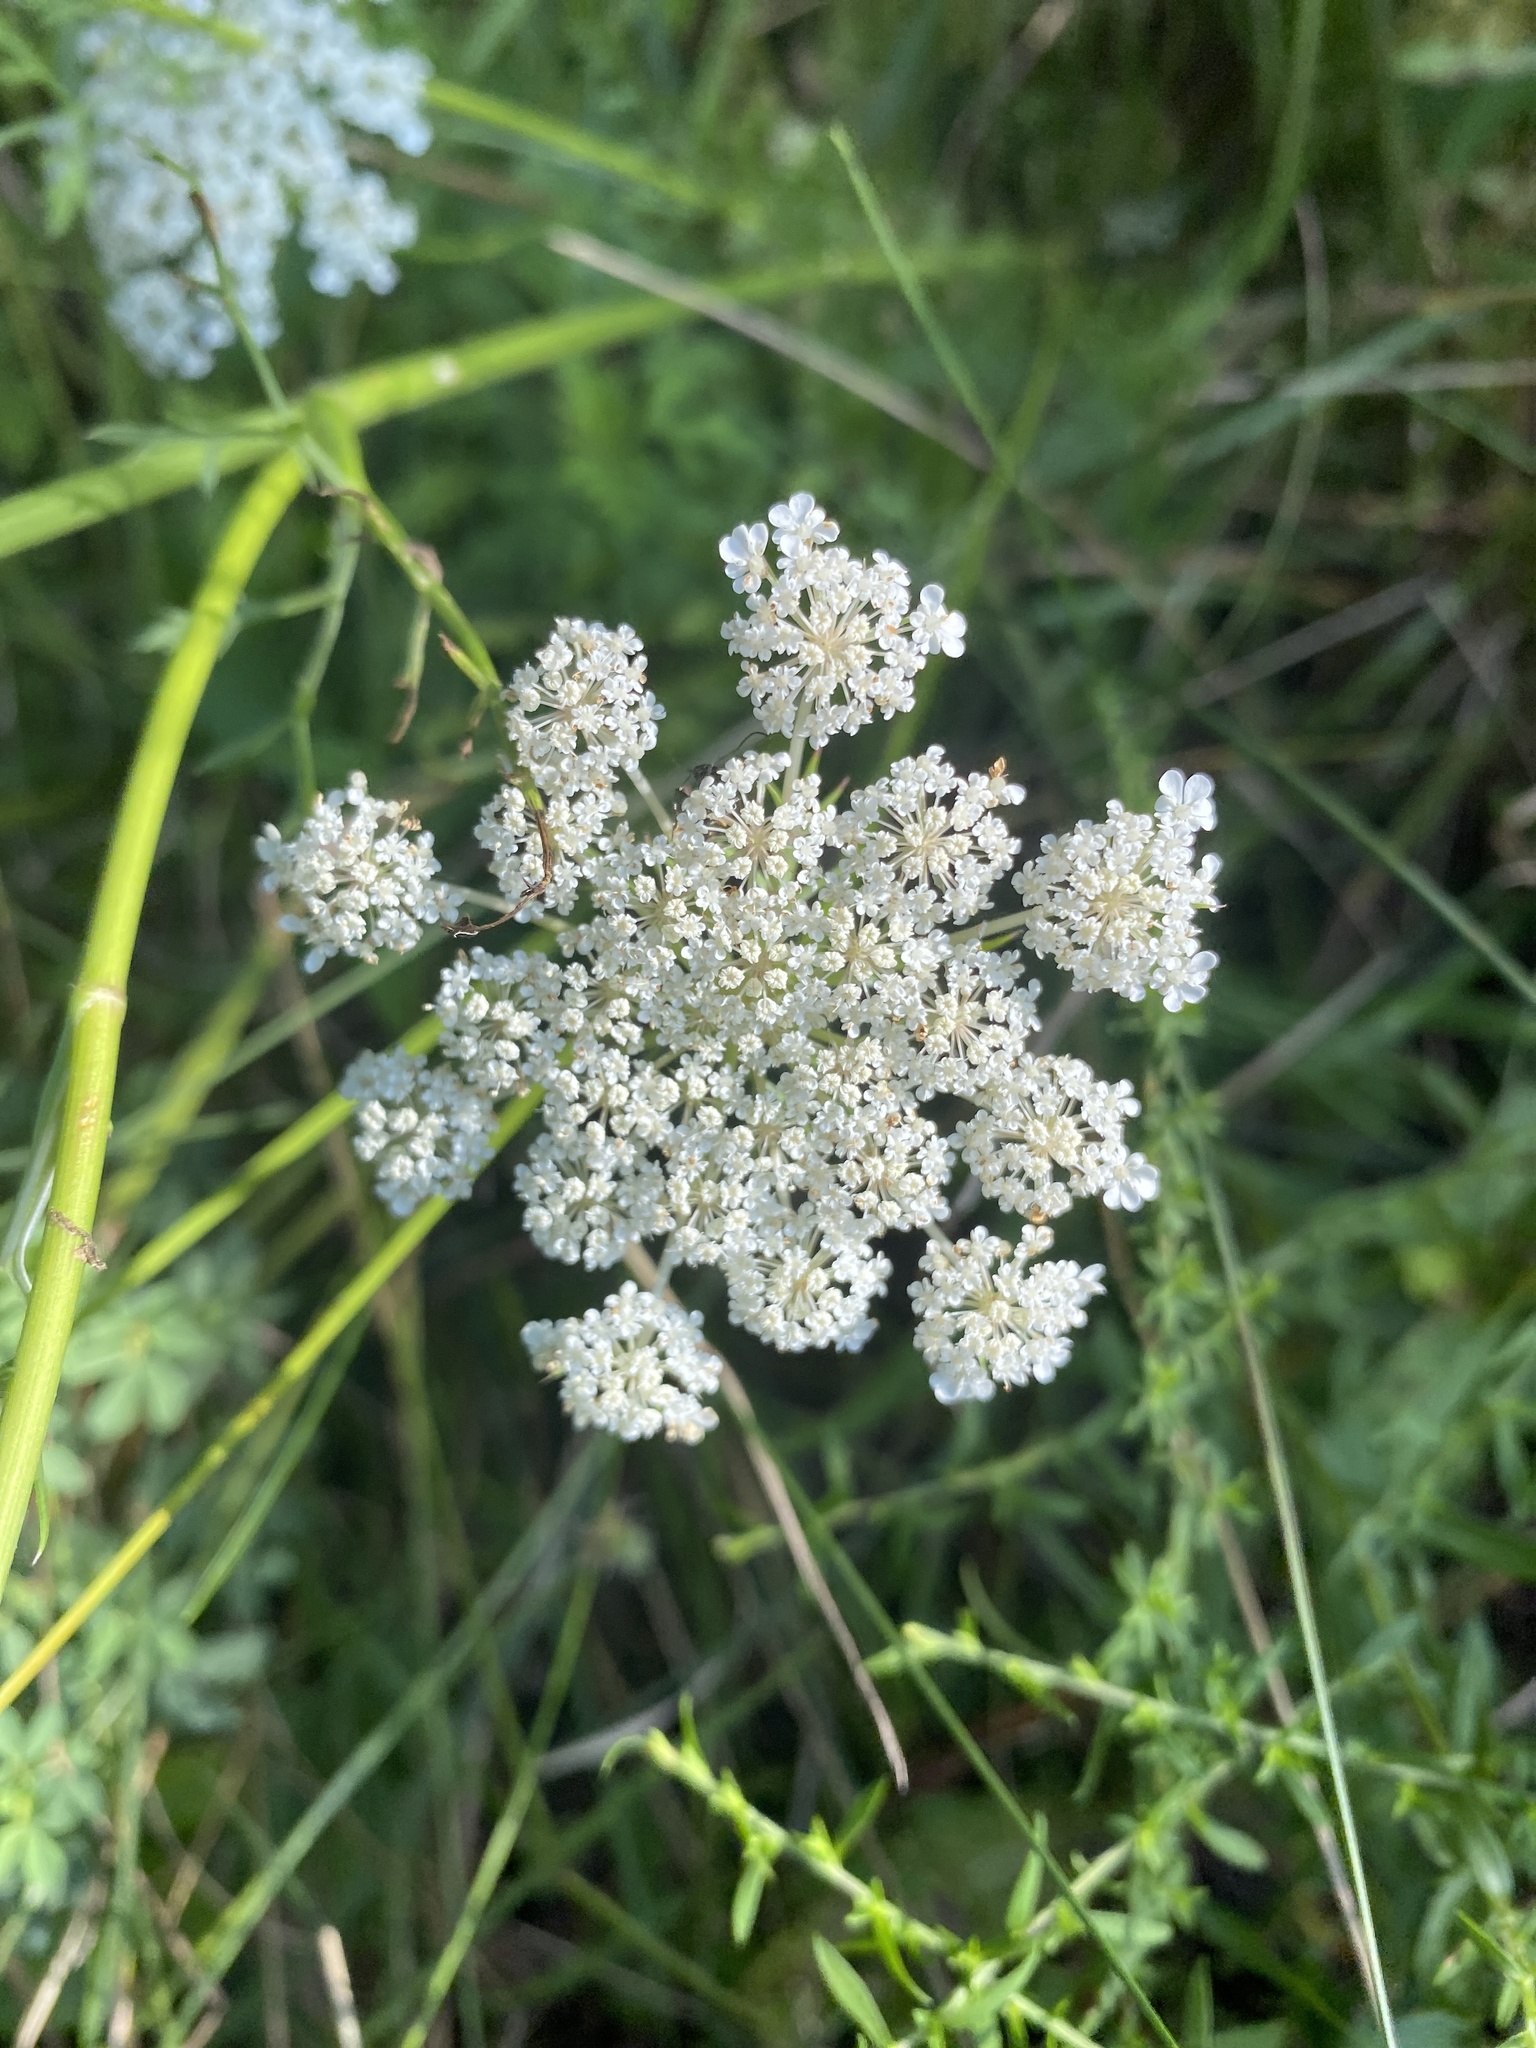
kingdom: Plantae
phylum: Tracheophyta
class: Magnoliopsida
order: Apiales
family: Apiaceae
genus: Daucus
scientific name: Daucus carota
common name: Wild carrot
